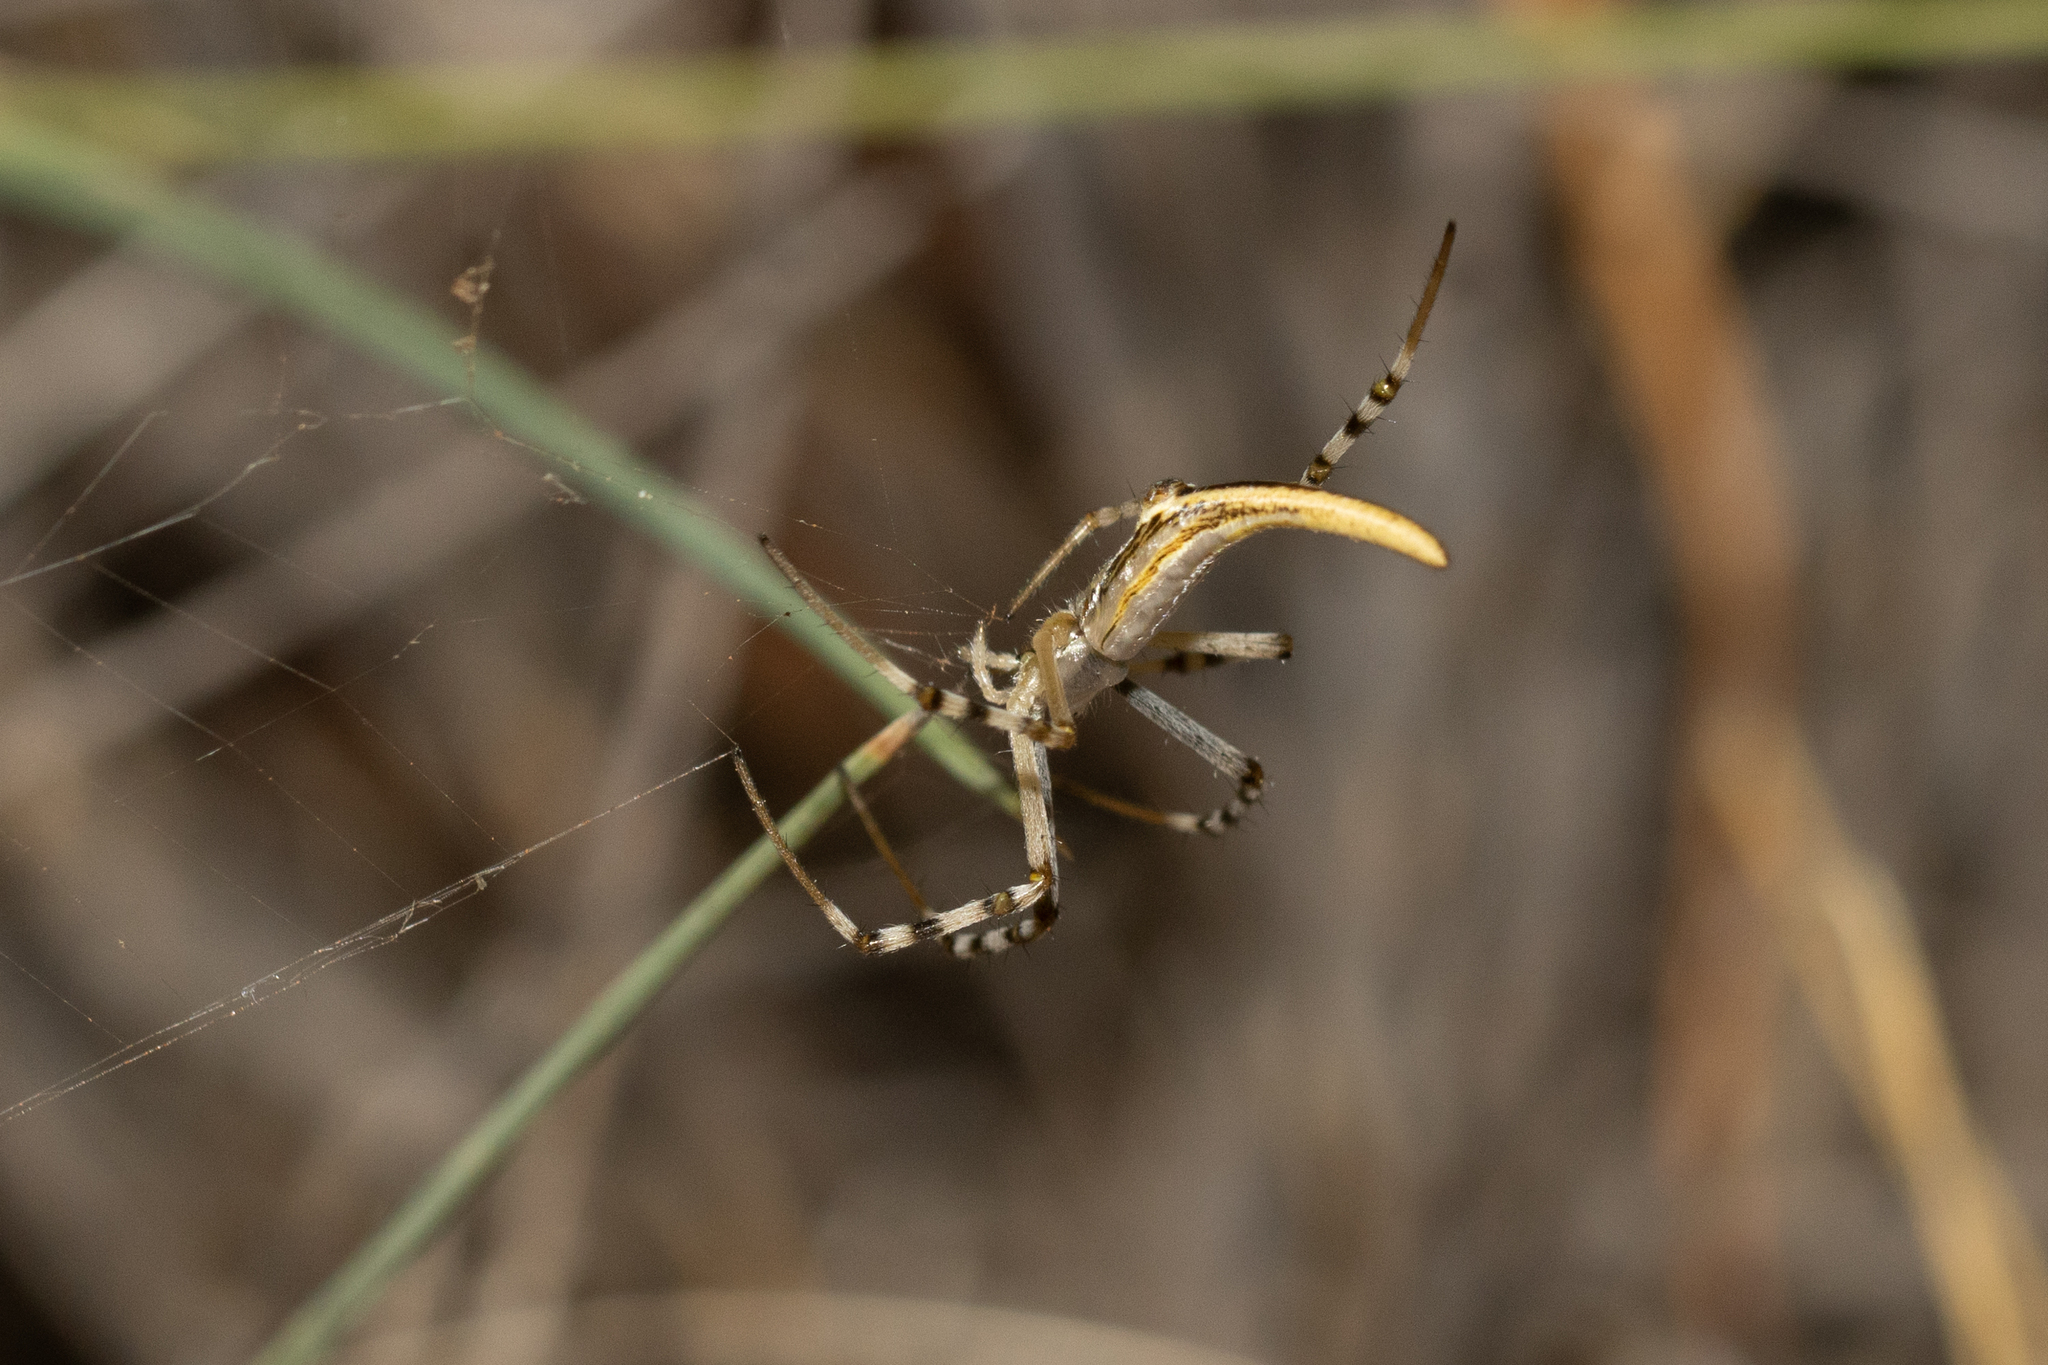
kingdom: Animalia
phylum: Arthropoda
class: Arachnida
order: Araneae
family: Araneidae
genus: Argiope
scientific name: Argiope protensa
